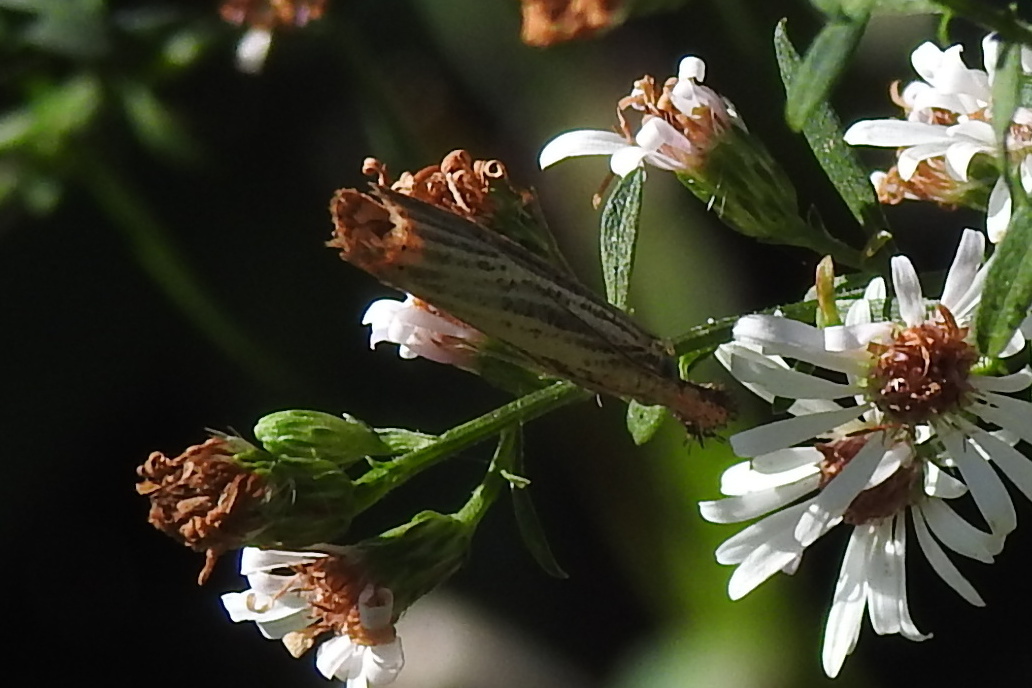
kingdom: Animalia
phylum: Arthropoda
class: Insecta
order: Lepidoptera
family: Crambidae
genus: Agriphila
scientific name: Agriphila vulgivagellus
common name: Vagabond crambus moth
